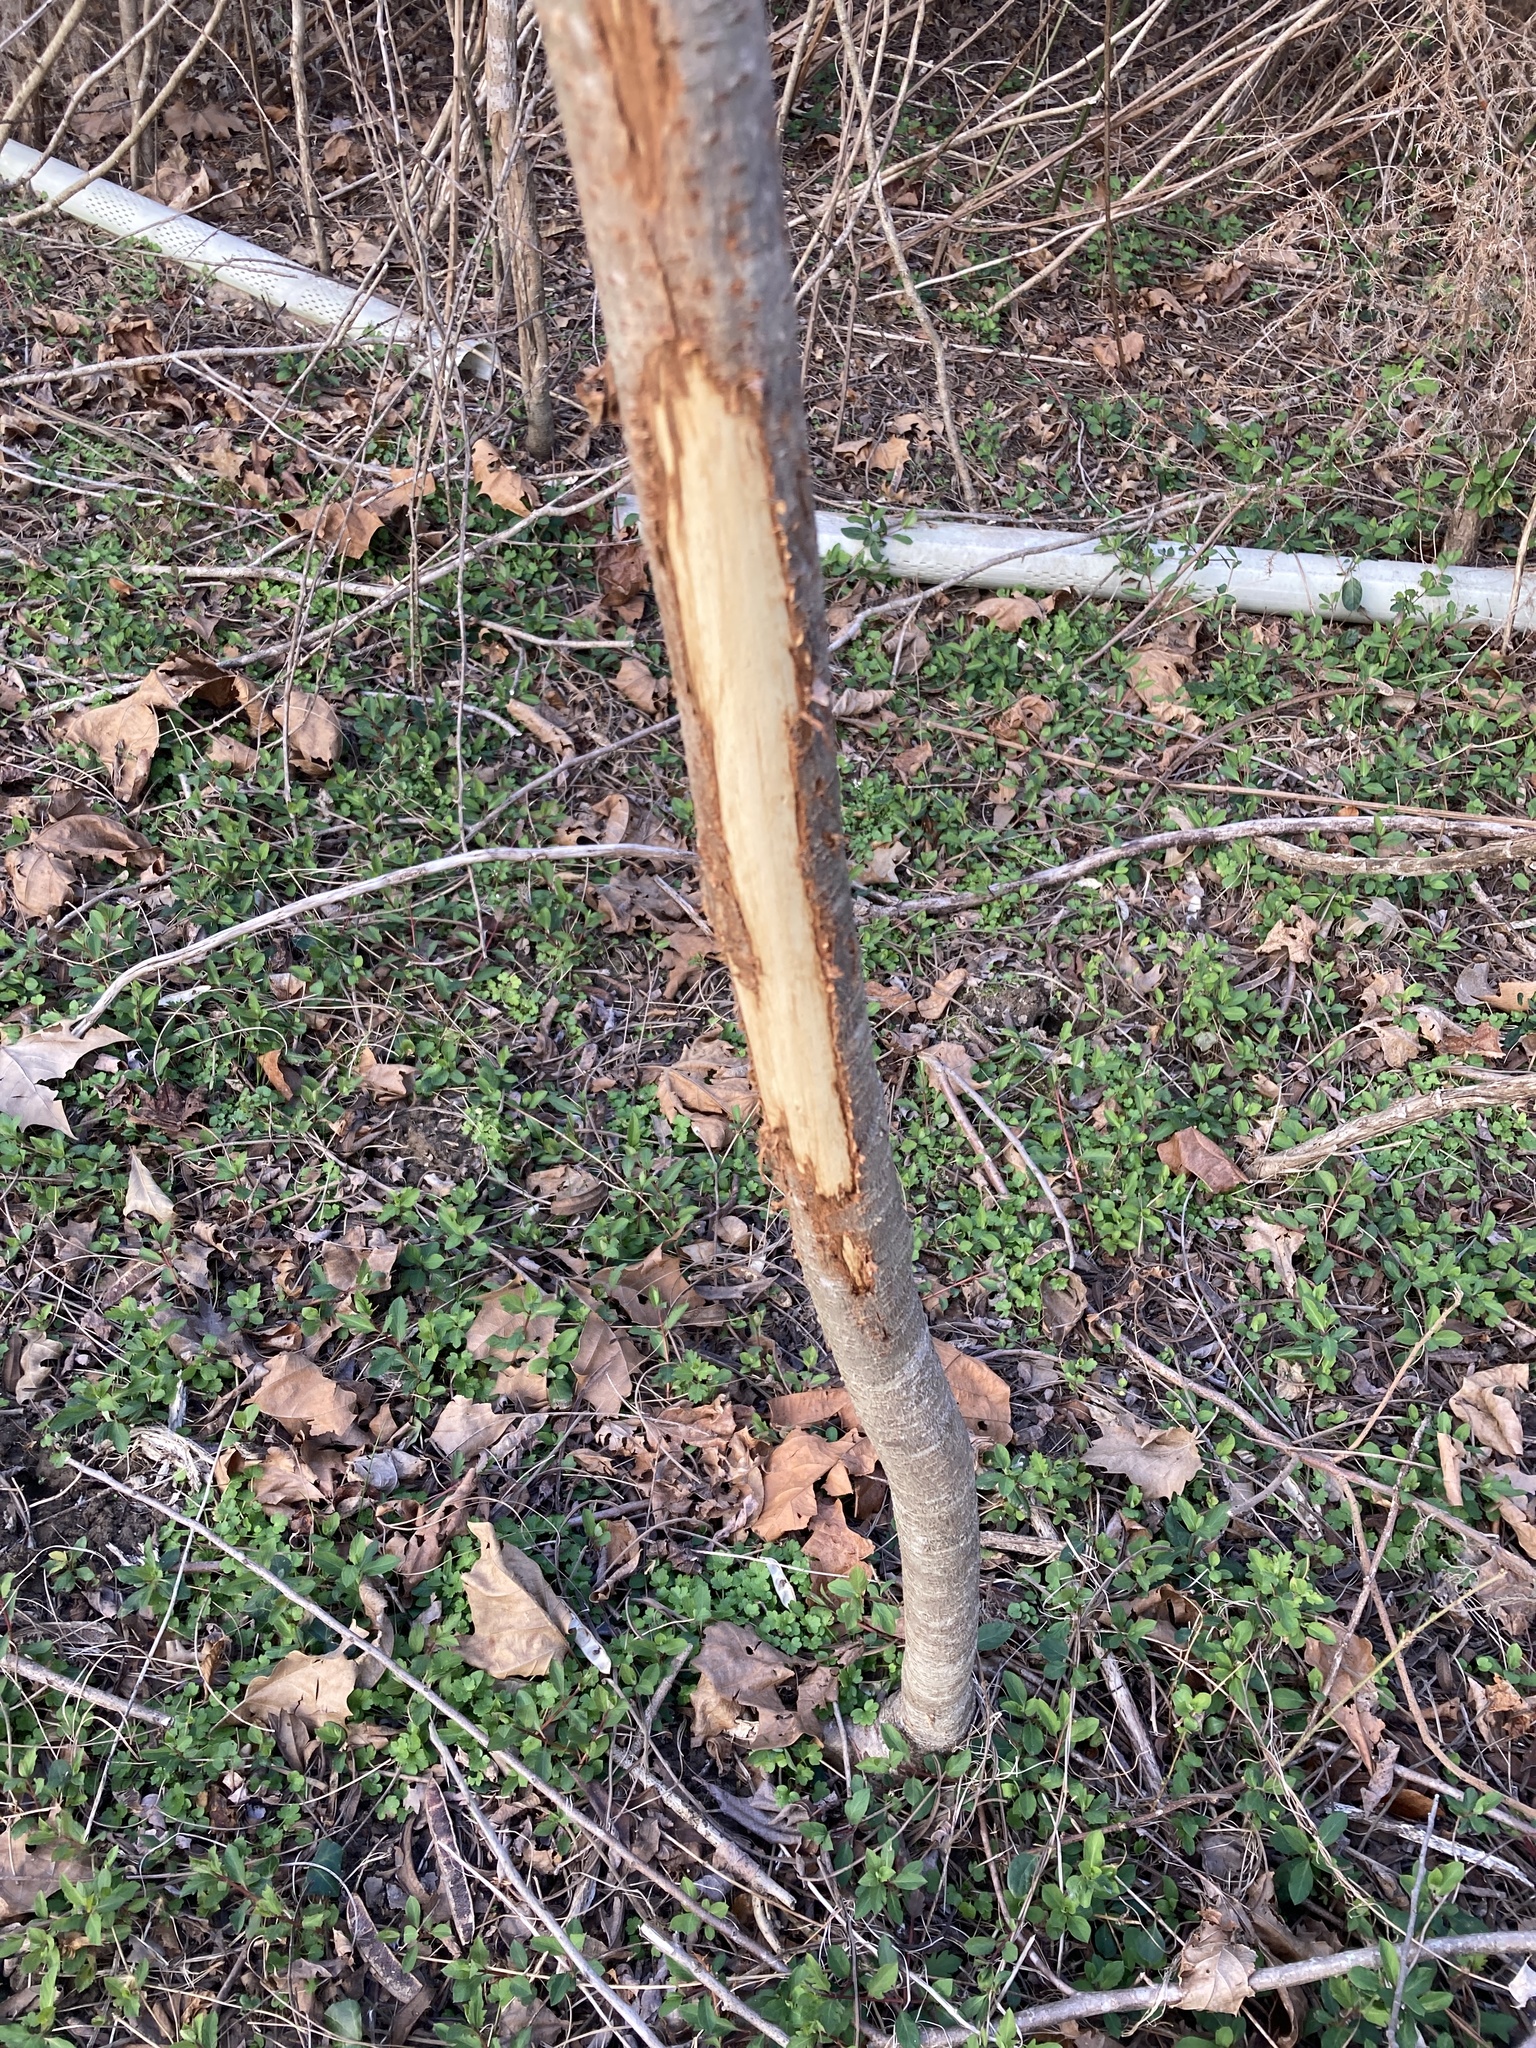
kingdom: Animalia
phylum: Chordata
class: Mammalia
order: Artiodactyla
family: Cervidae
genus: Odocoileus
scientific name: Odocoileus virginianus
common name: White-tailed deer
